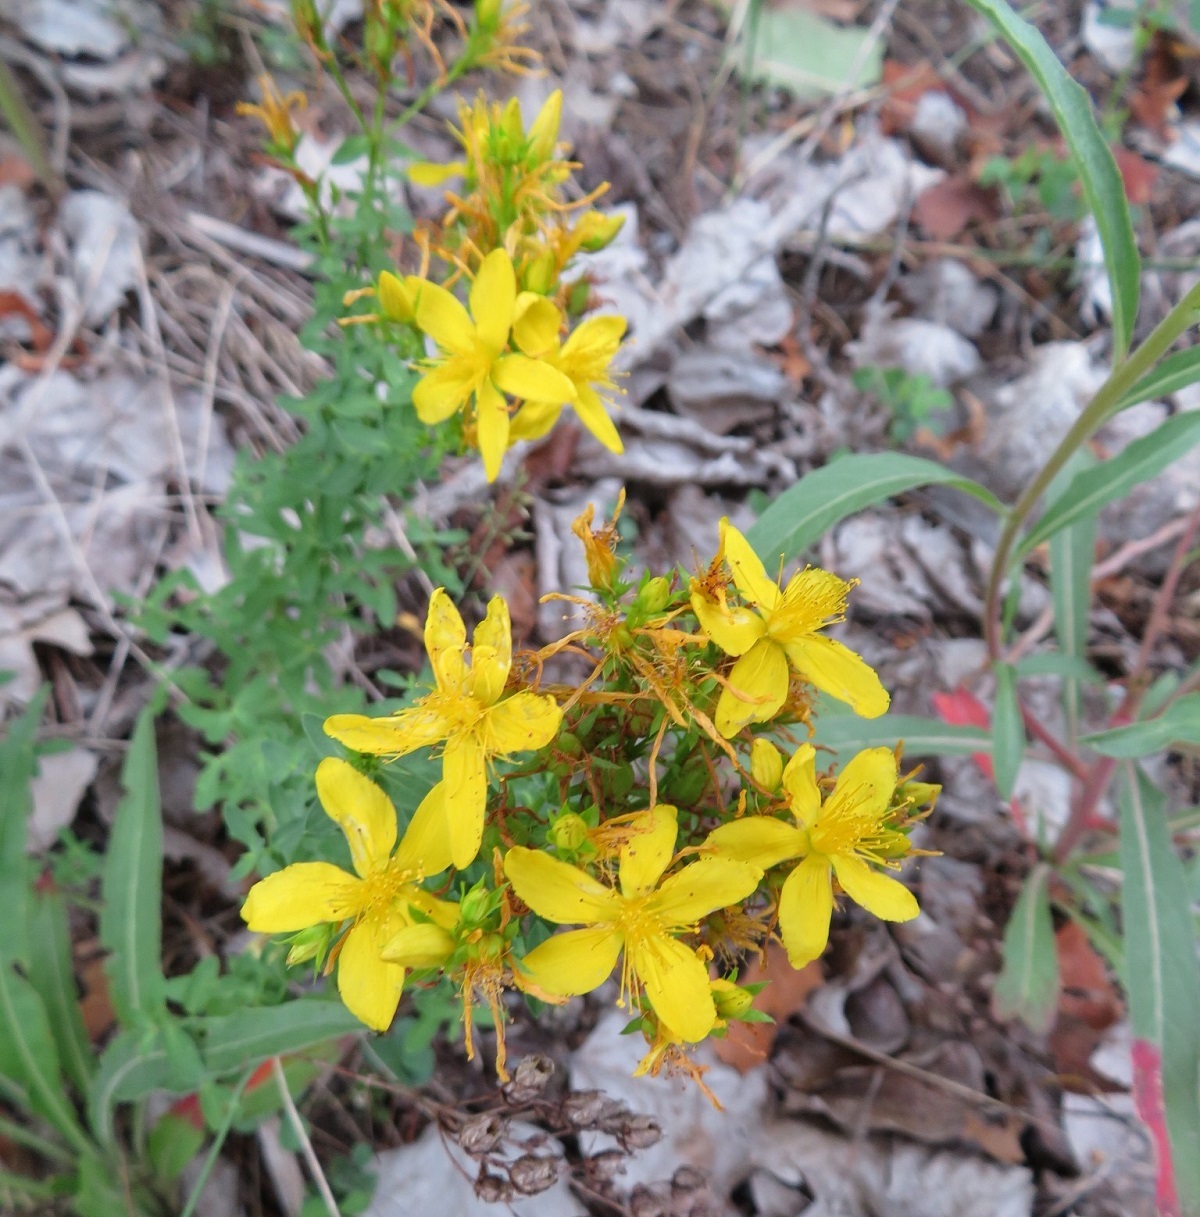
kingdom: Plantae
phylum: Tracheophyta
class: Magnoliopsida
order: Malpighiales
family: Hypericaceae
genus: Hypericum
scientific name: Hypericum perforatum
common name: Common st. johnswort
